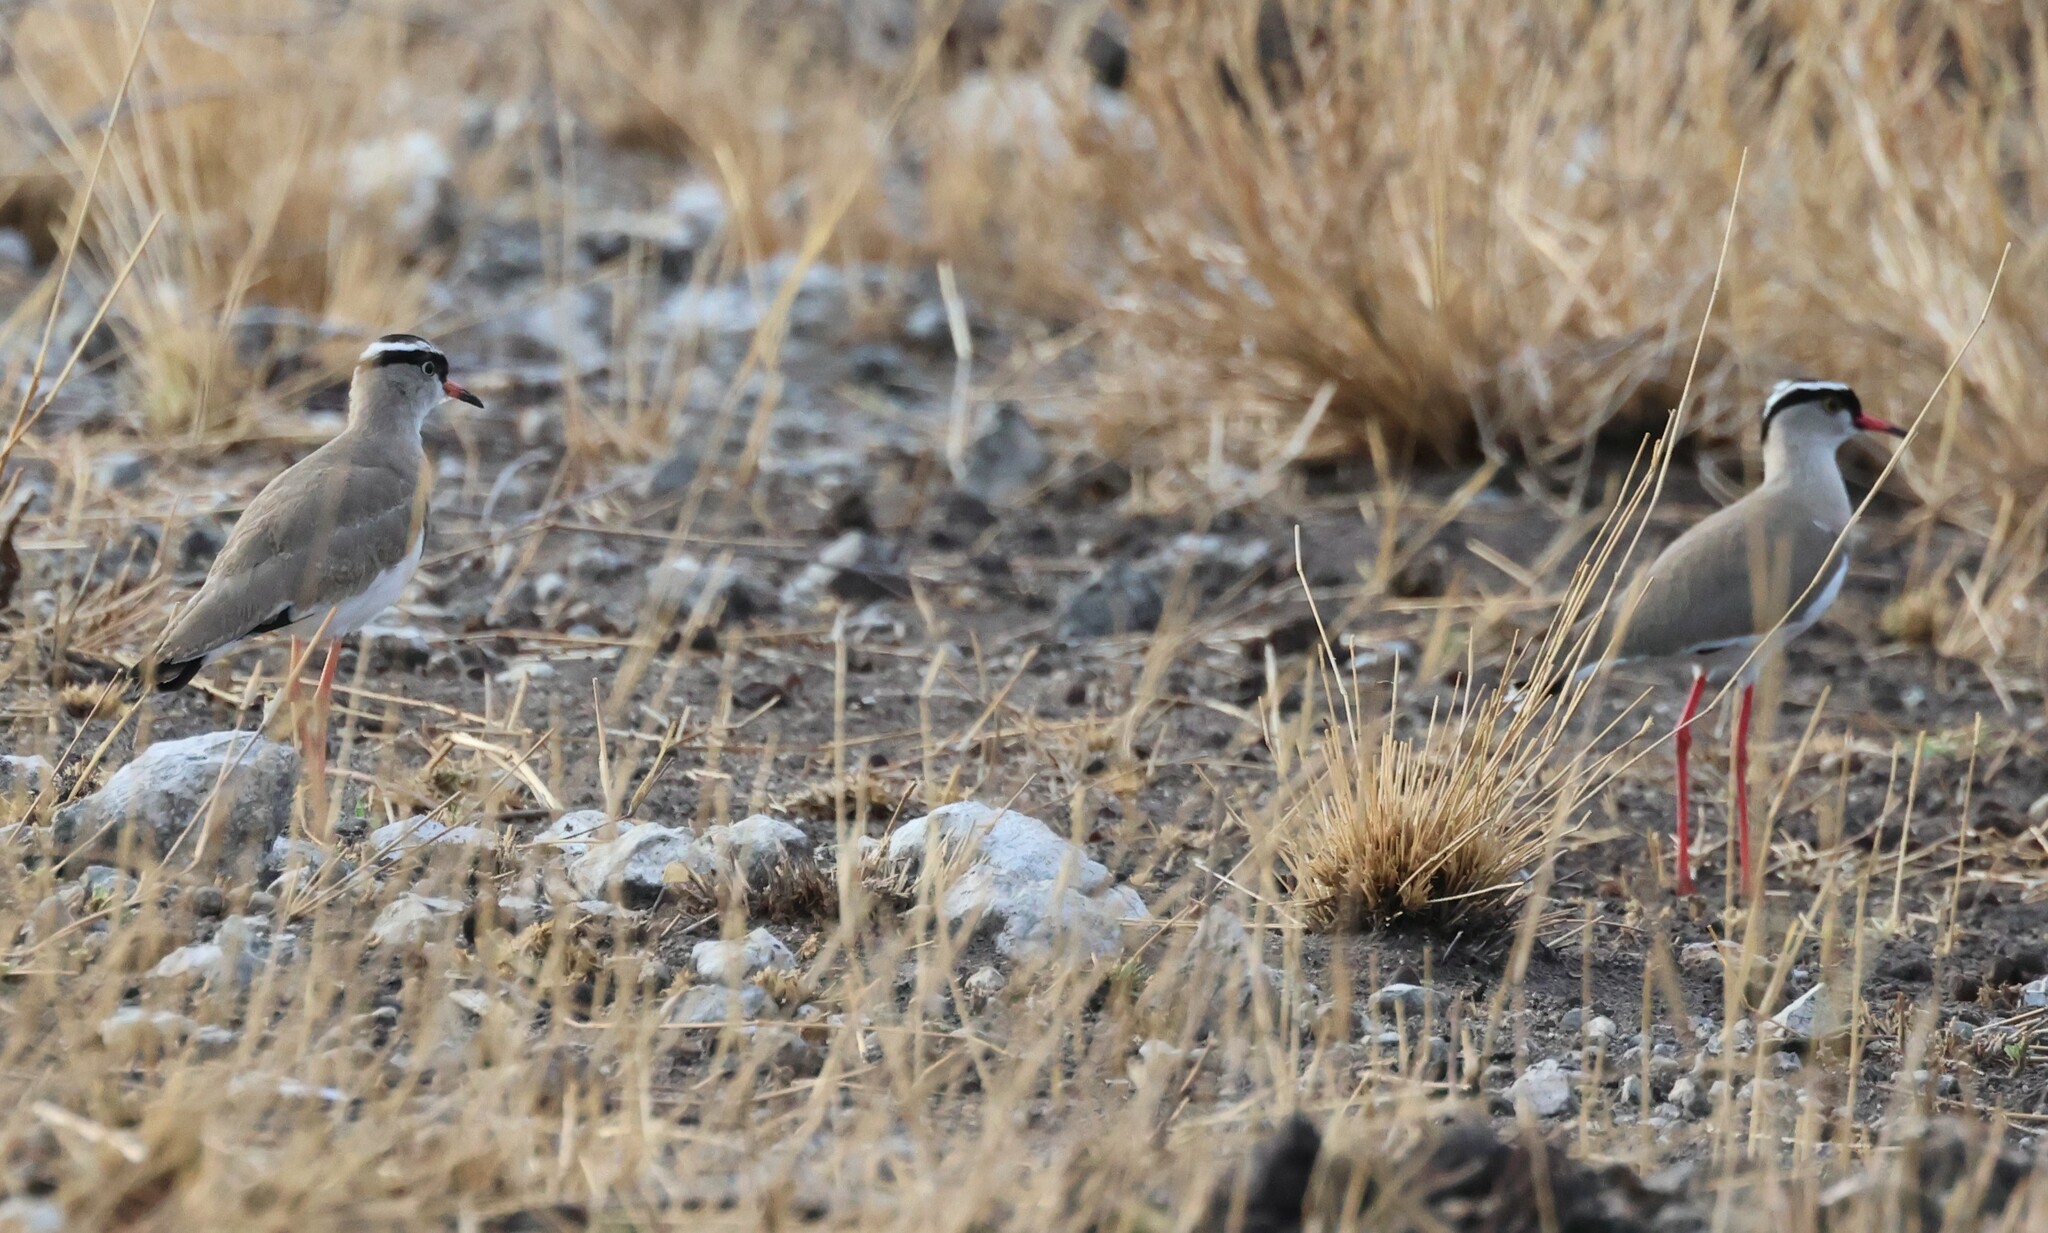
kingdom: Animalia
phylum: Chordata
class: Aves
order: Charadriiformes
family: Charadriidae
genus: Vanellus
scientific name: Vanellus coronatus
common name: Crowned lapwing
